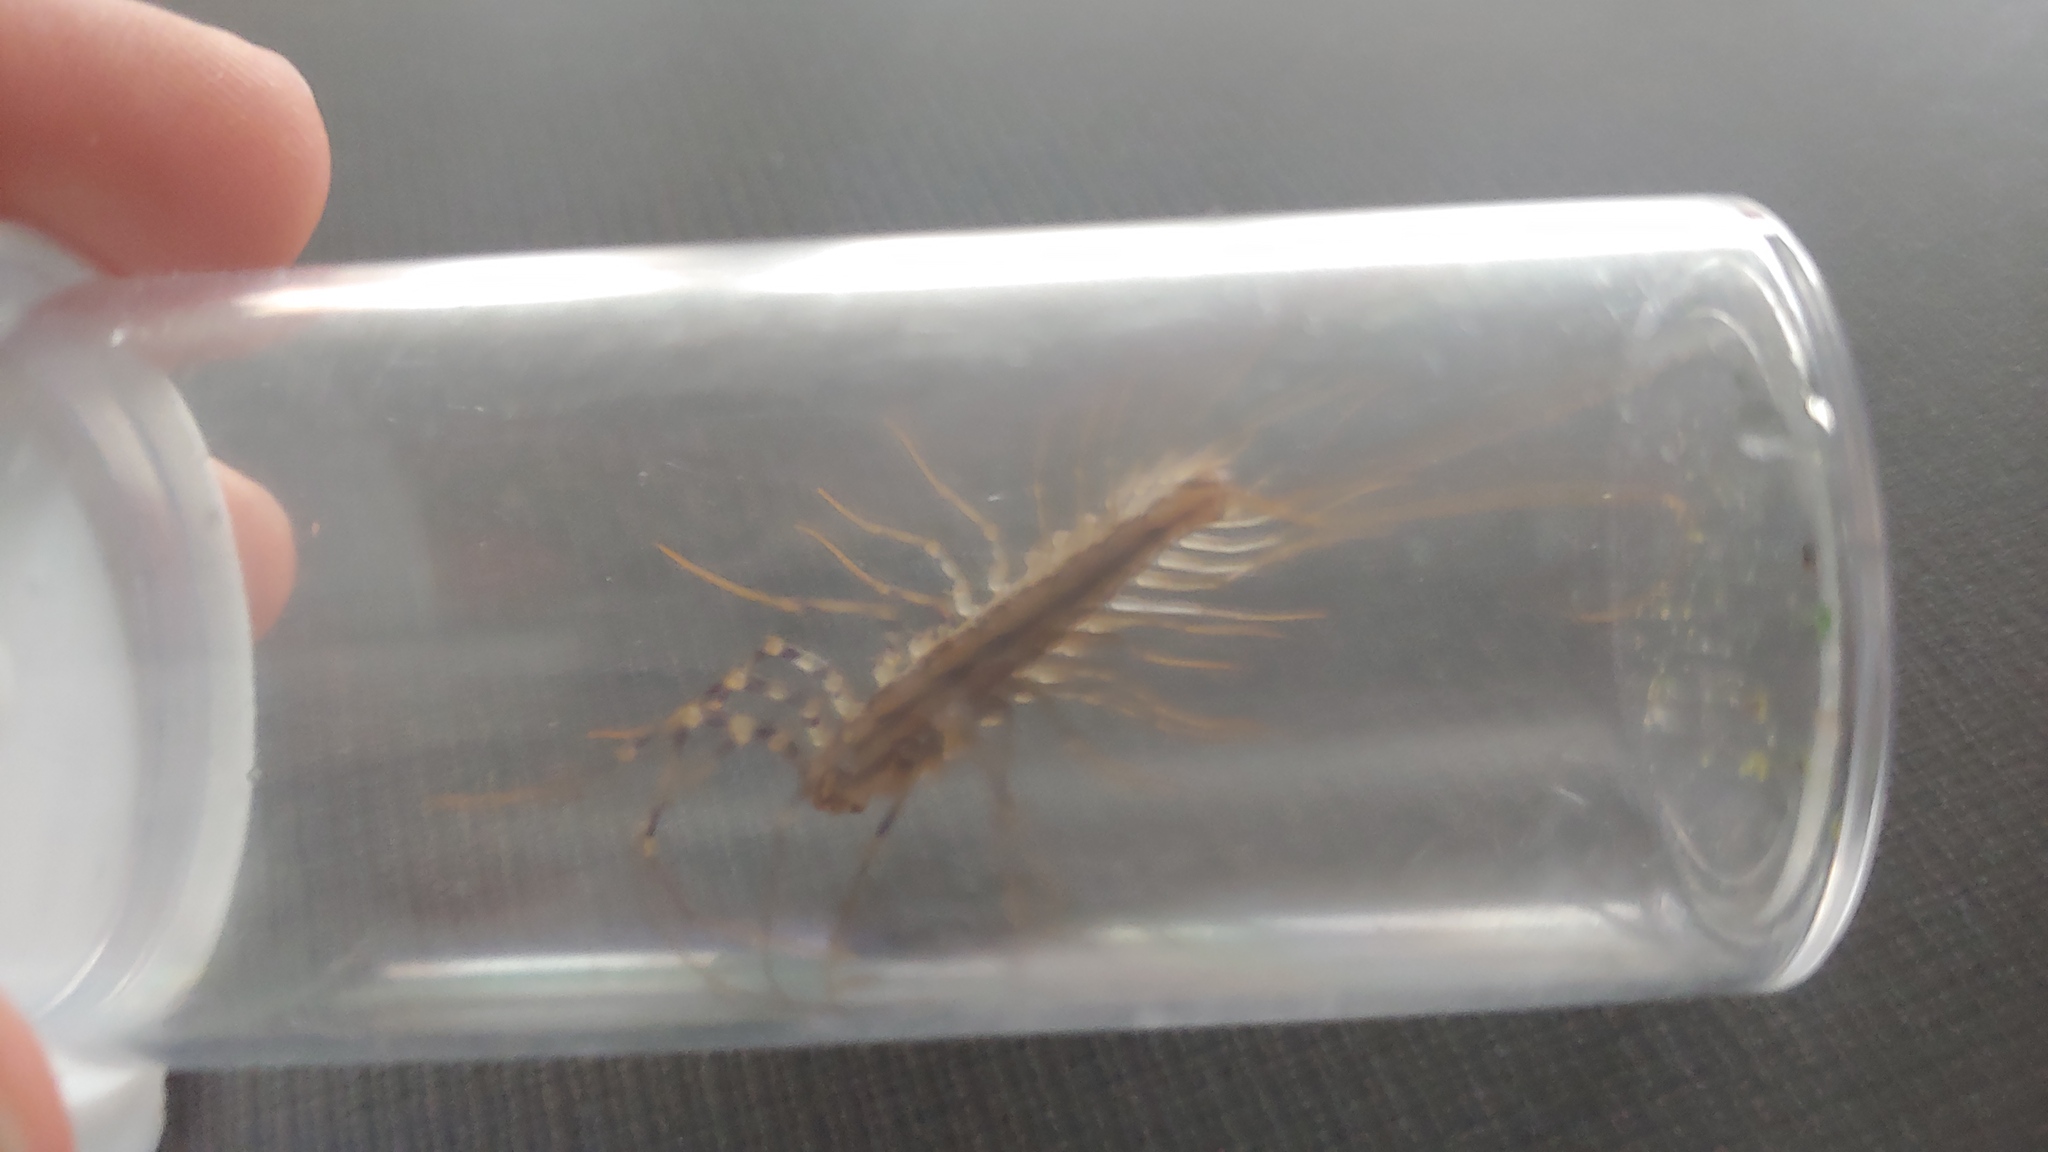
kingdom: Animalia
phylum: Arthropoda
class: Chilopoda
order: Scutigeromorpha
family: Scutigeridae
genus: Scutigera
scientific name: Scutigera coleoptrata
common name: House centipede
